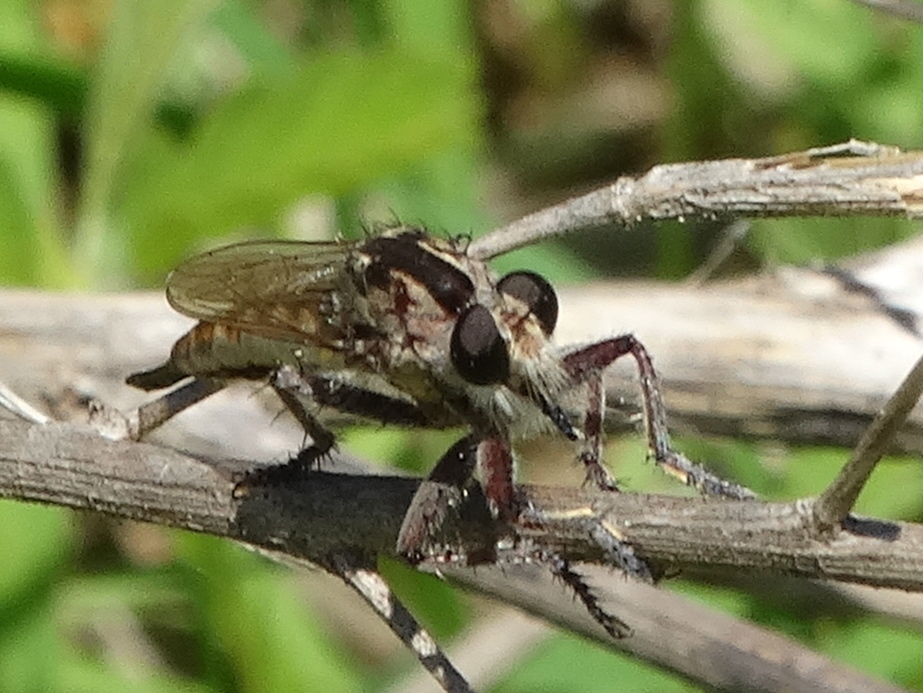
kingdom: Animalia
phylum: Arthropoda
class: Insecta
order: Diptera
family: Asilidae
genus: Efferia
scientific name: Efferia
